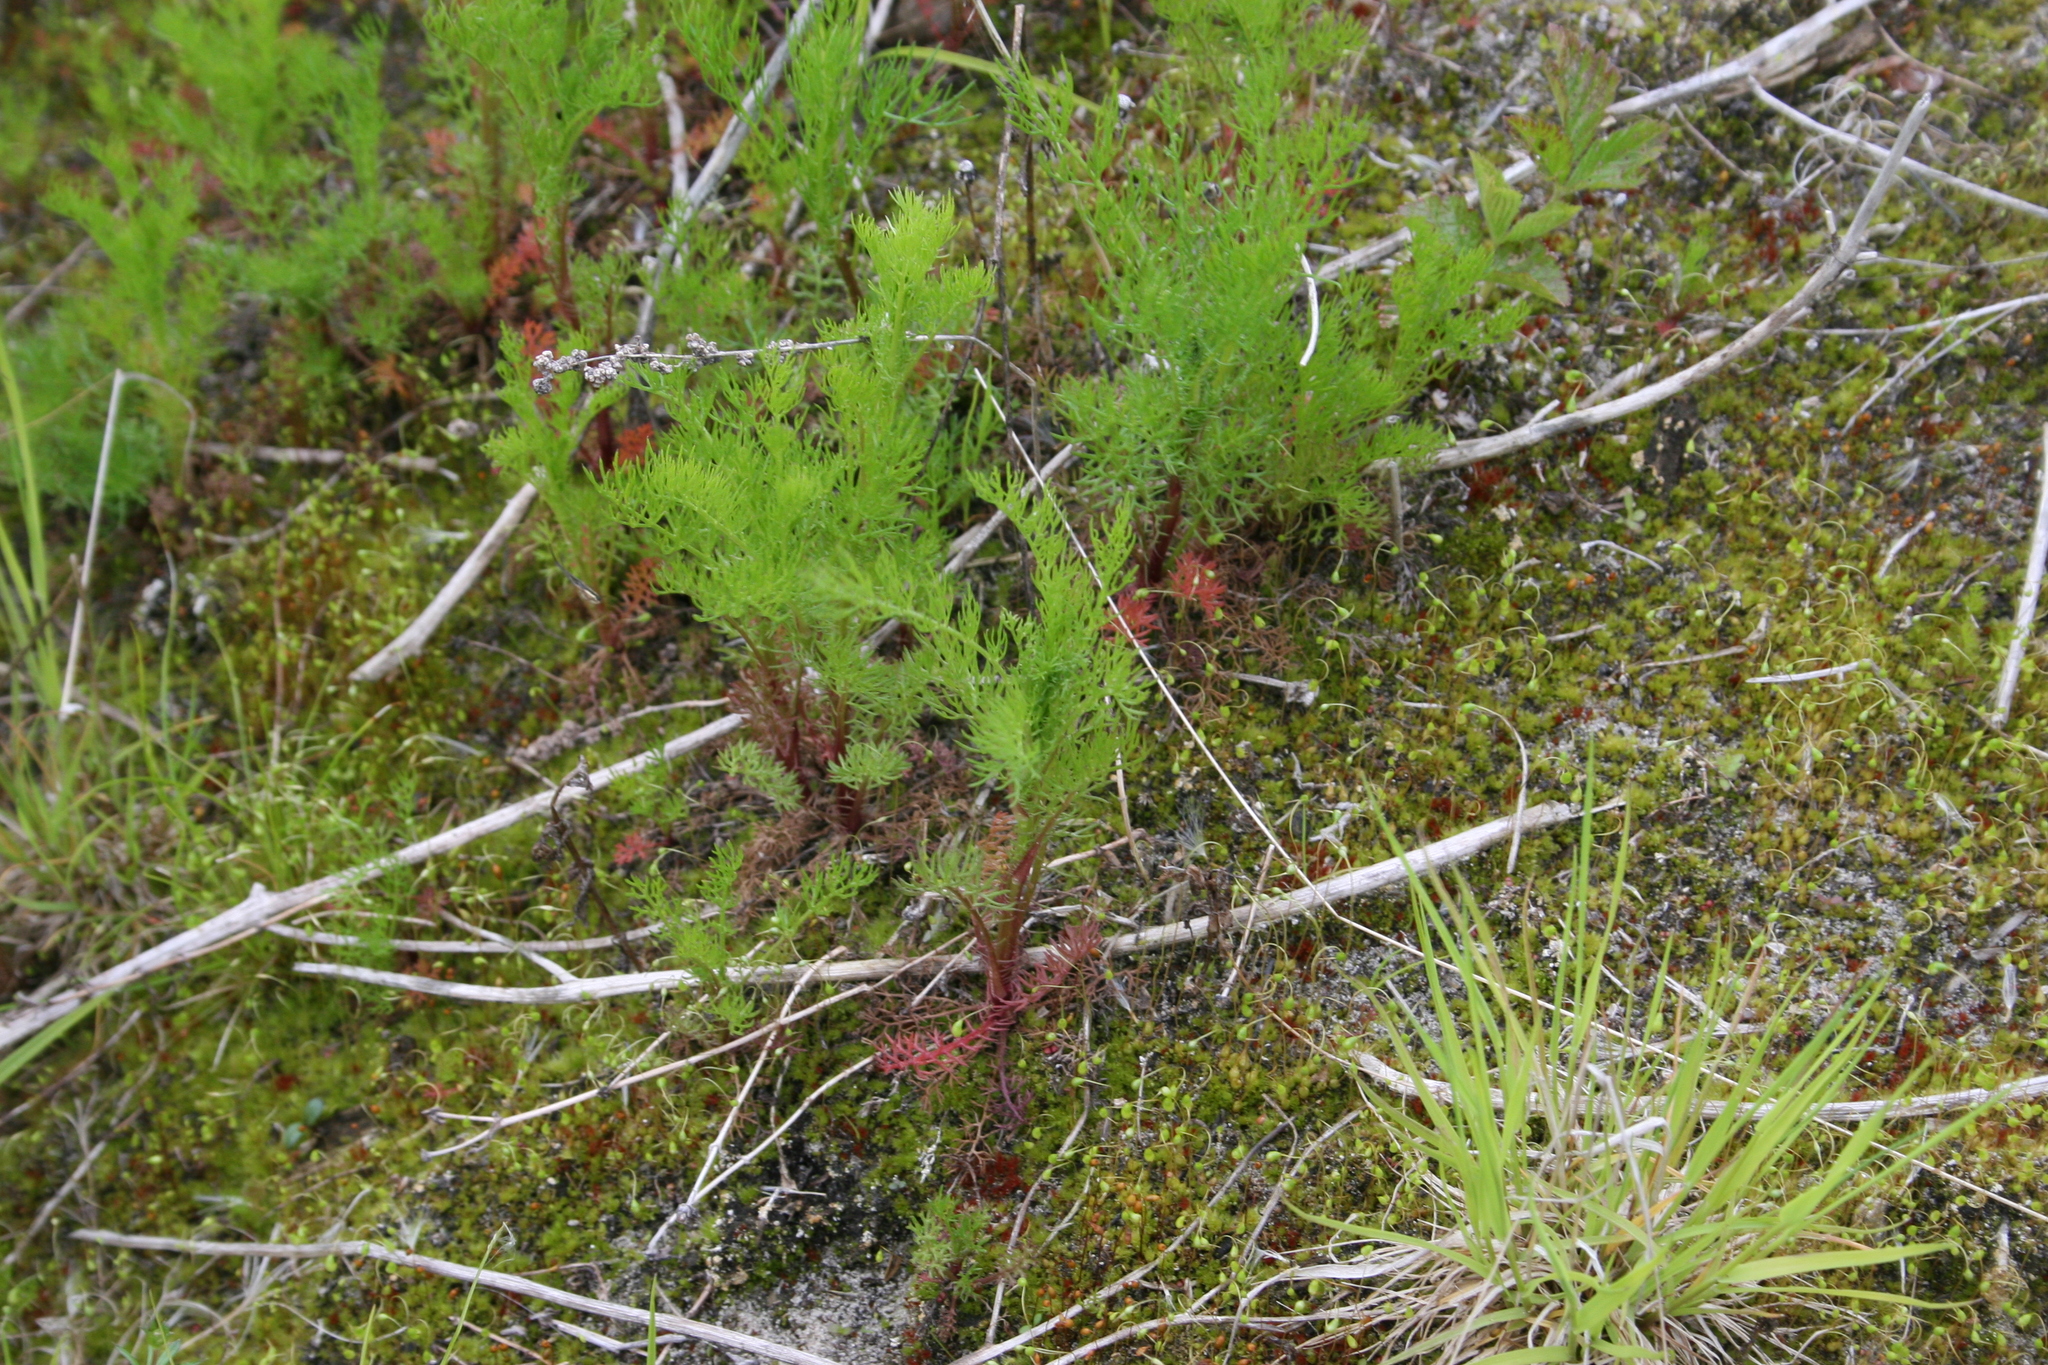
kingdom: Plantae
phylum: Tracheophyta
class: Magnoliopsida
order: Asterales
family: Asteraceae
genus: Tripleurospermum
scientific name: Tripleurospermum inodorum
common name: Scentless mayweed
